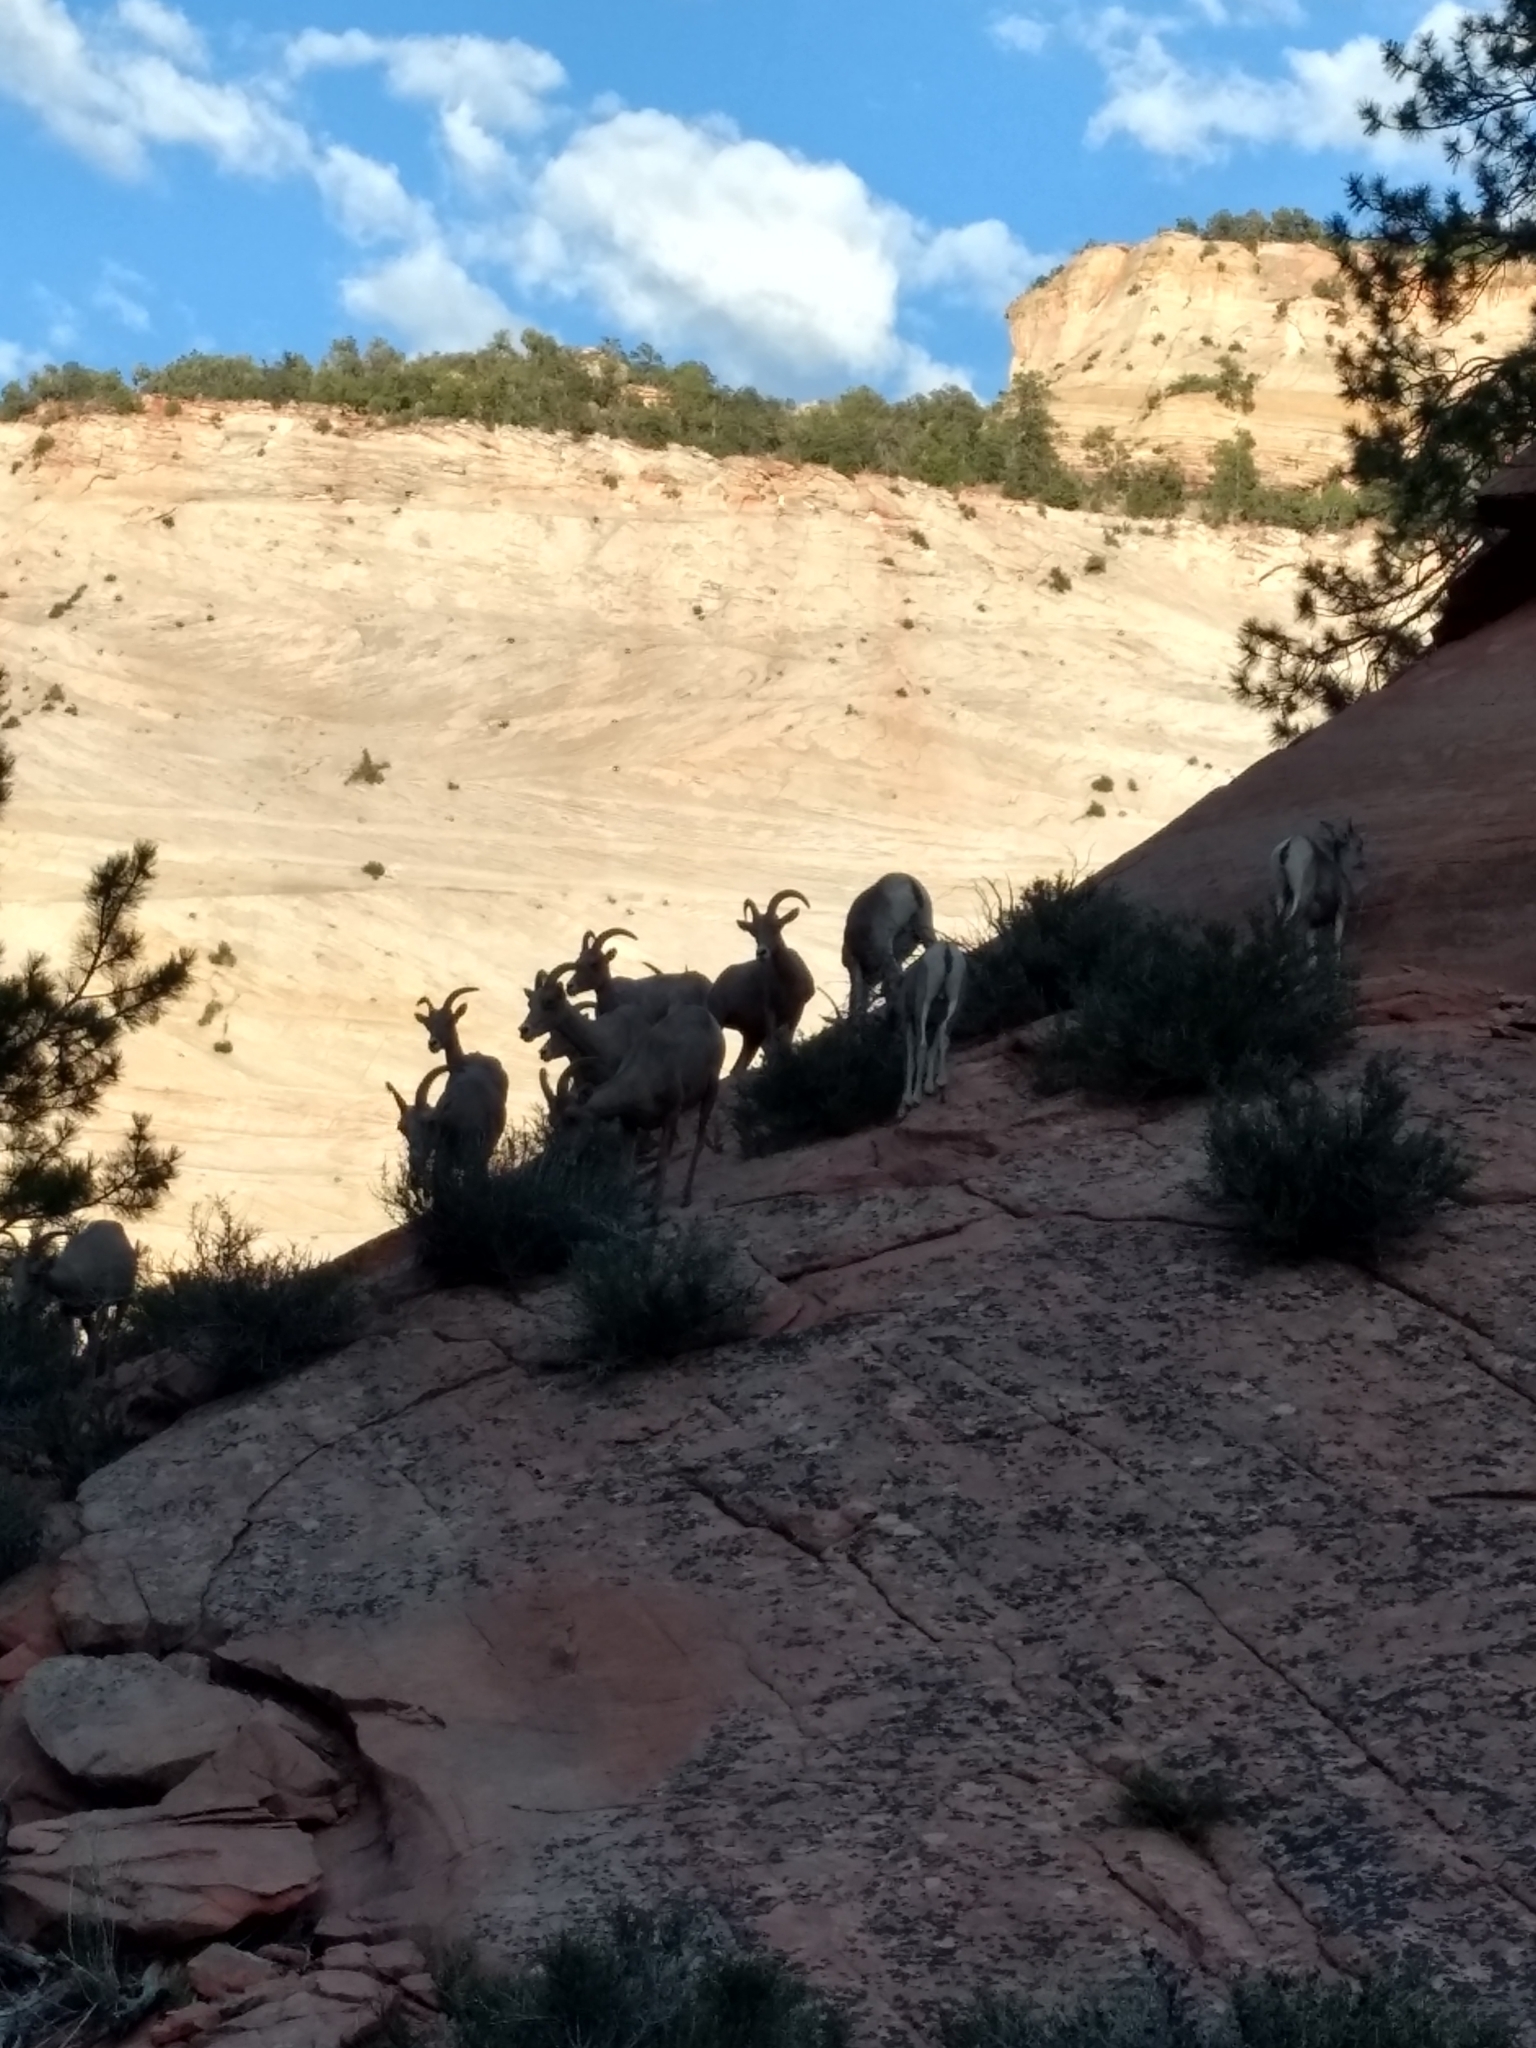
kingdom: Animalia
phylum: Chordata
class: Mammalia
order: Artiodactyla
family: Bovidae
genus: Ovis
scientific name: Ovis canadensis
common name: Bighorn sheep
